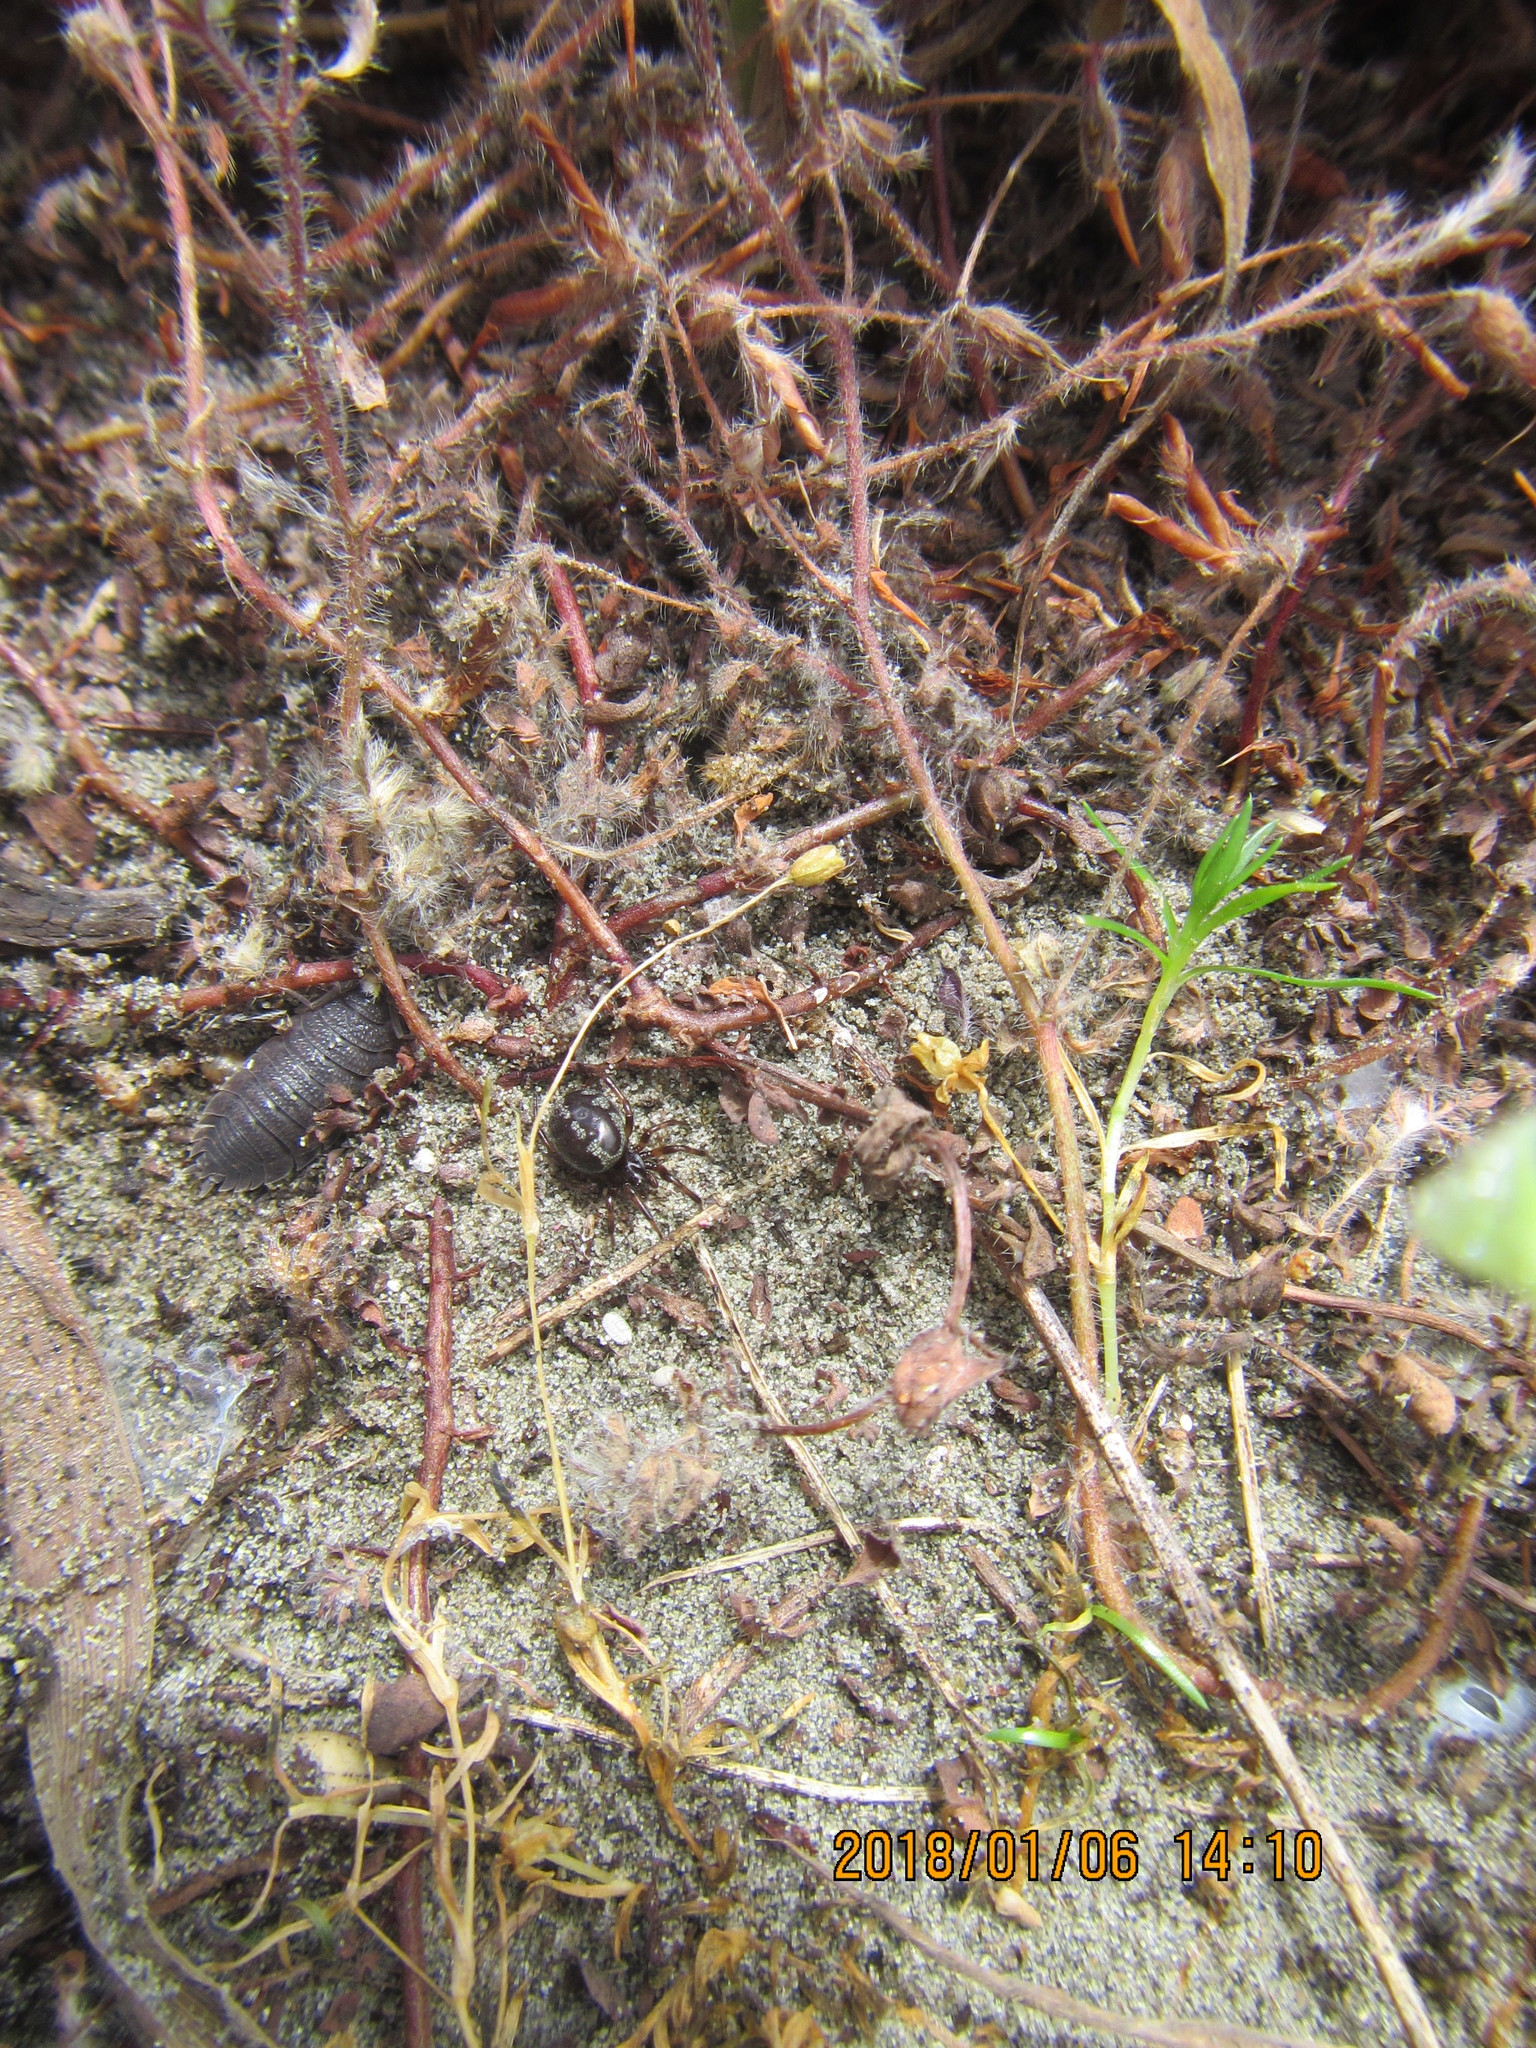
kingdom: Animalia
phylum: Arthropoda
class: Arachnida
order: Araneae
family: Theridiidae
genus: Steatoda
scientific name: Steatoda lepida
